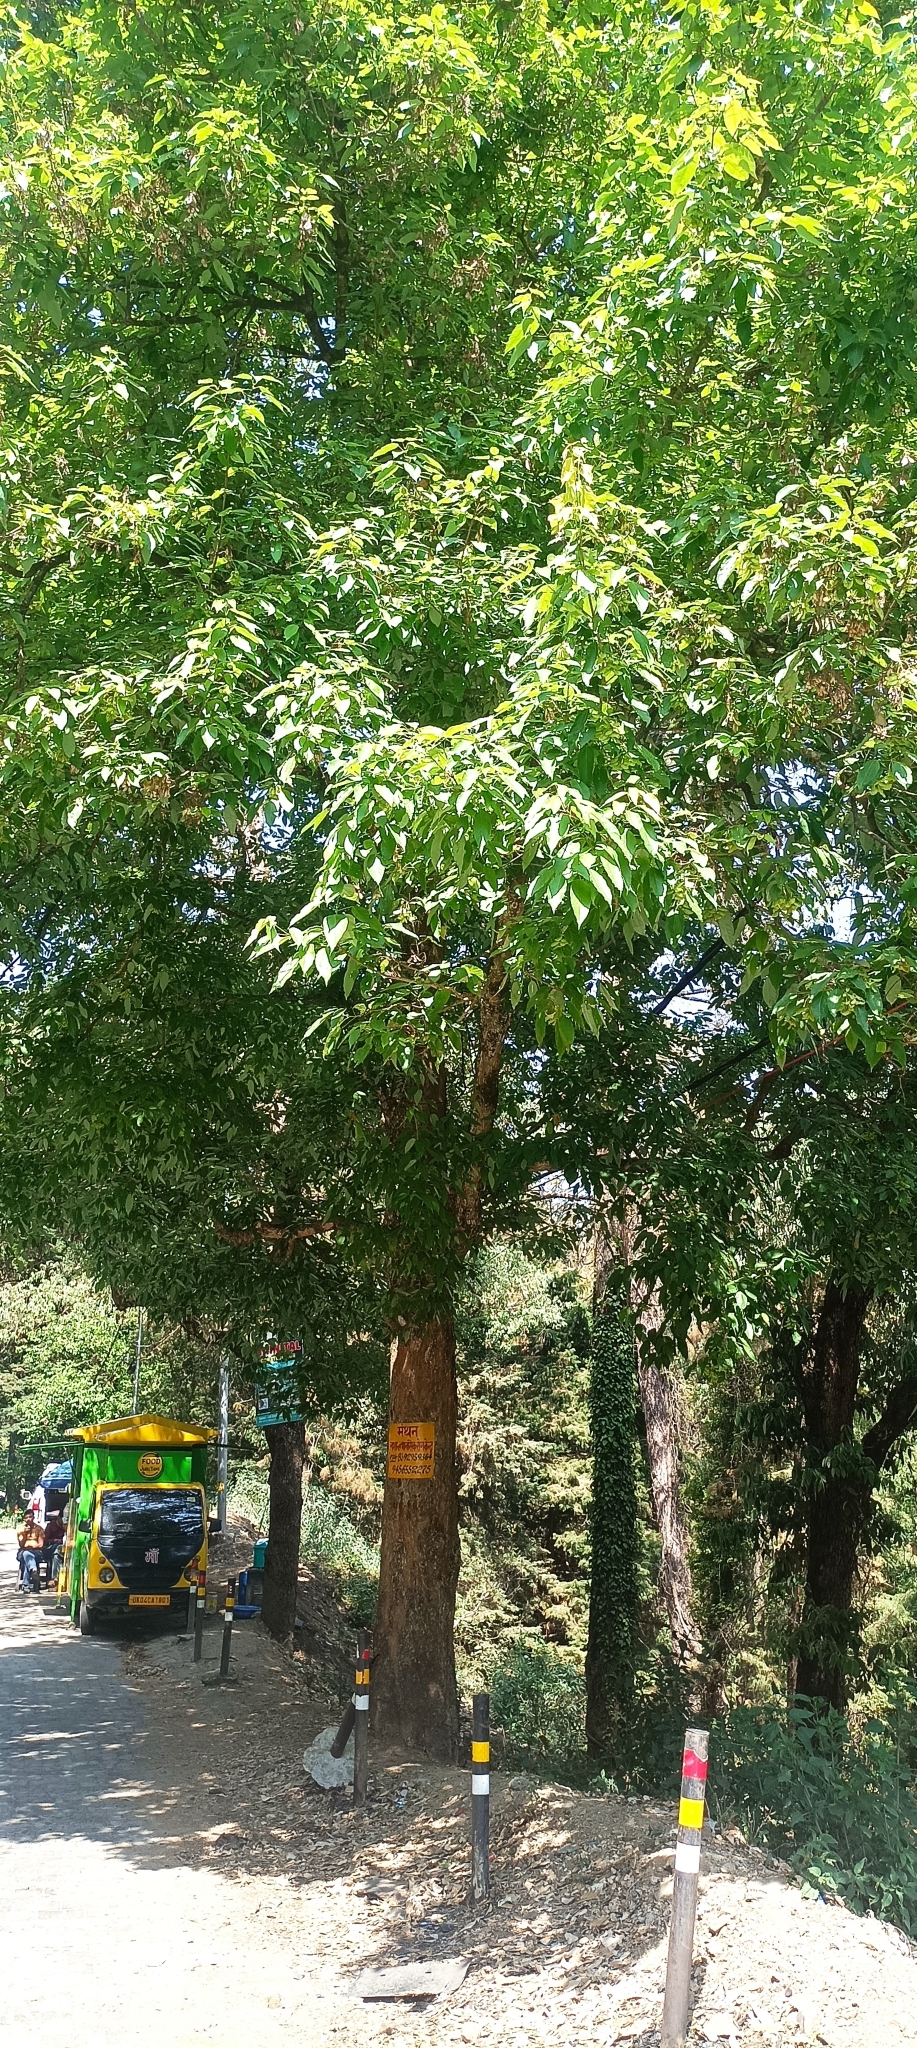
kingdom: Plantae
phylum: Tracheophyta
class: Magnoliopsida
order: Sapindales
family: Sapindaceae
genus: Acer
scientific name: Acer oblongum
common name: Himalayan maple
